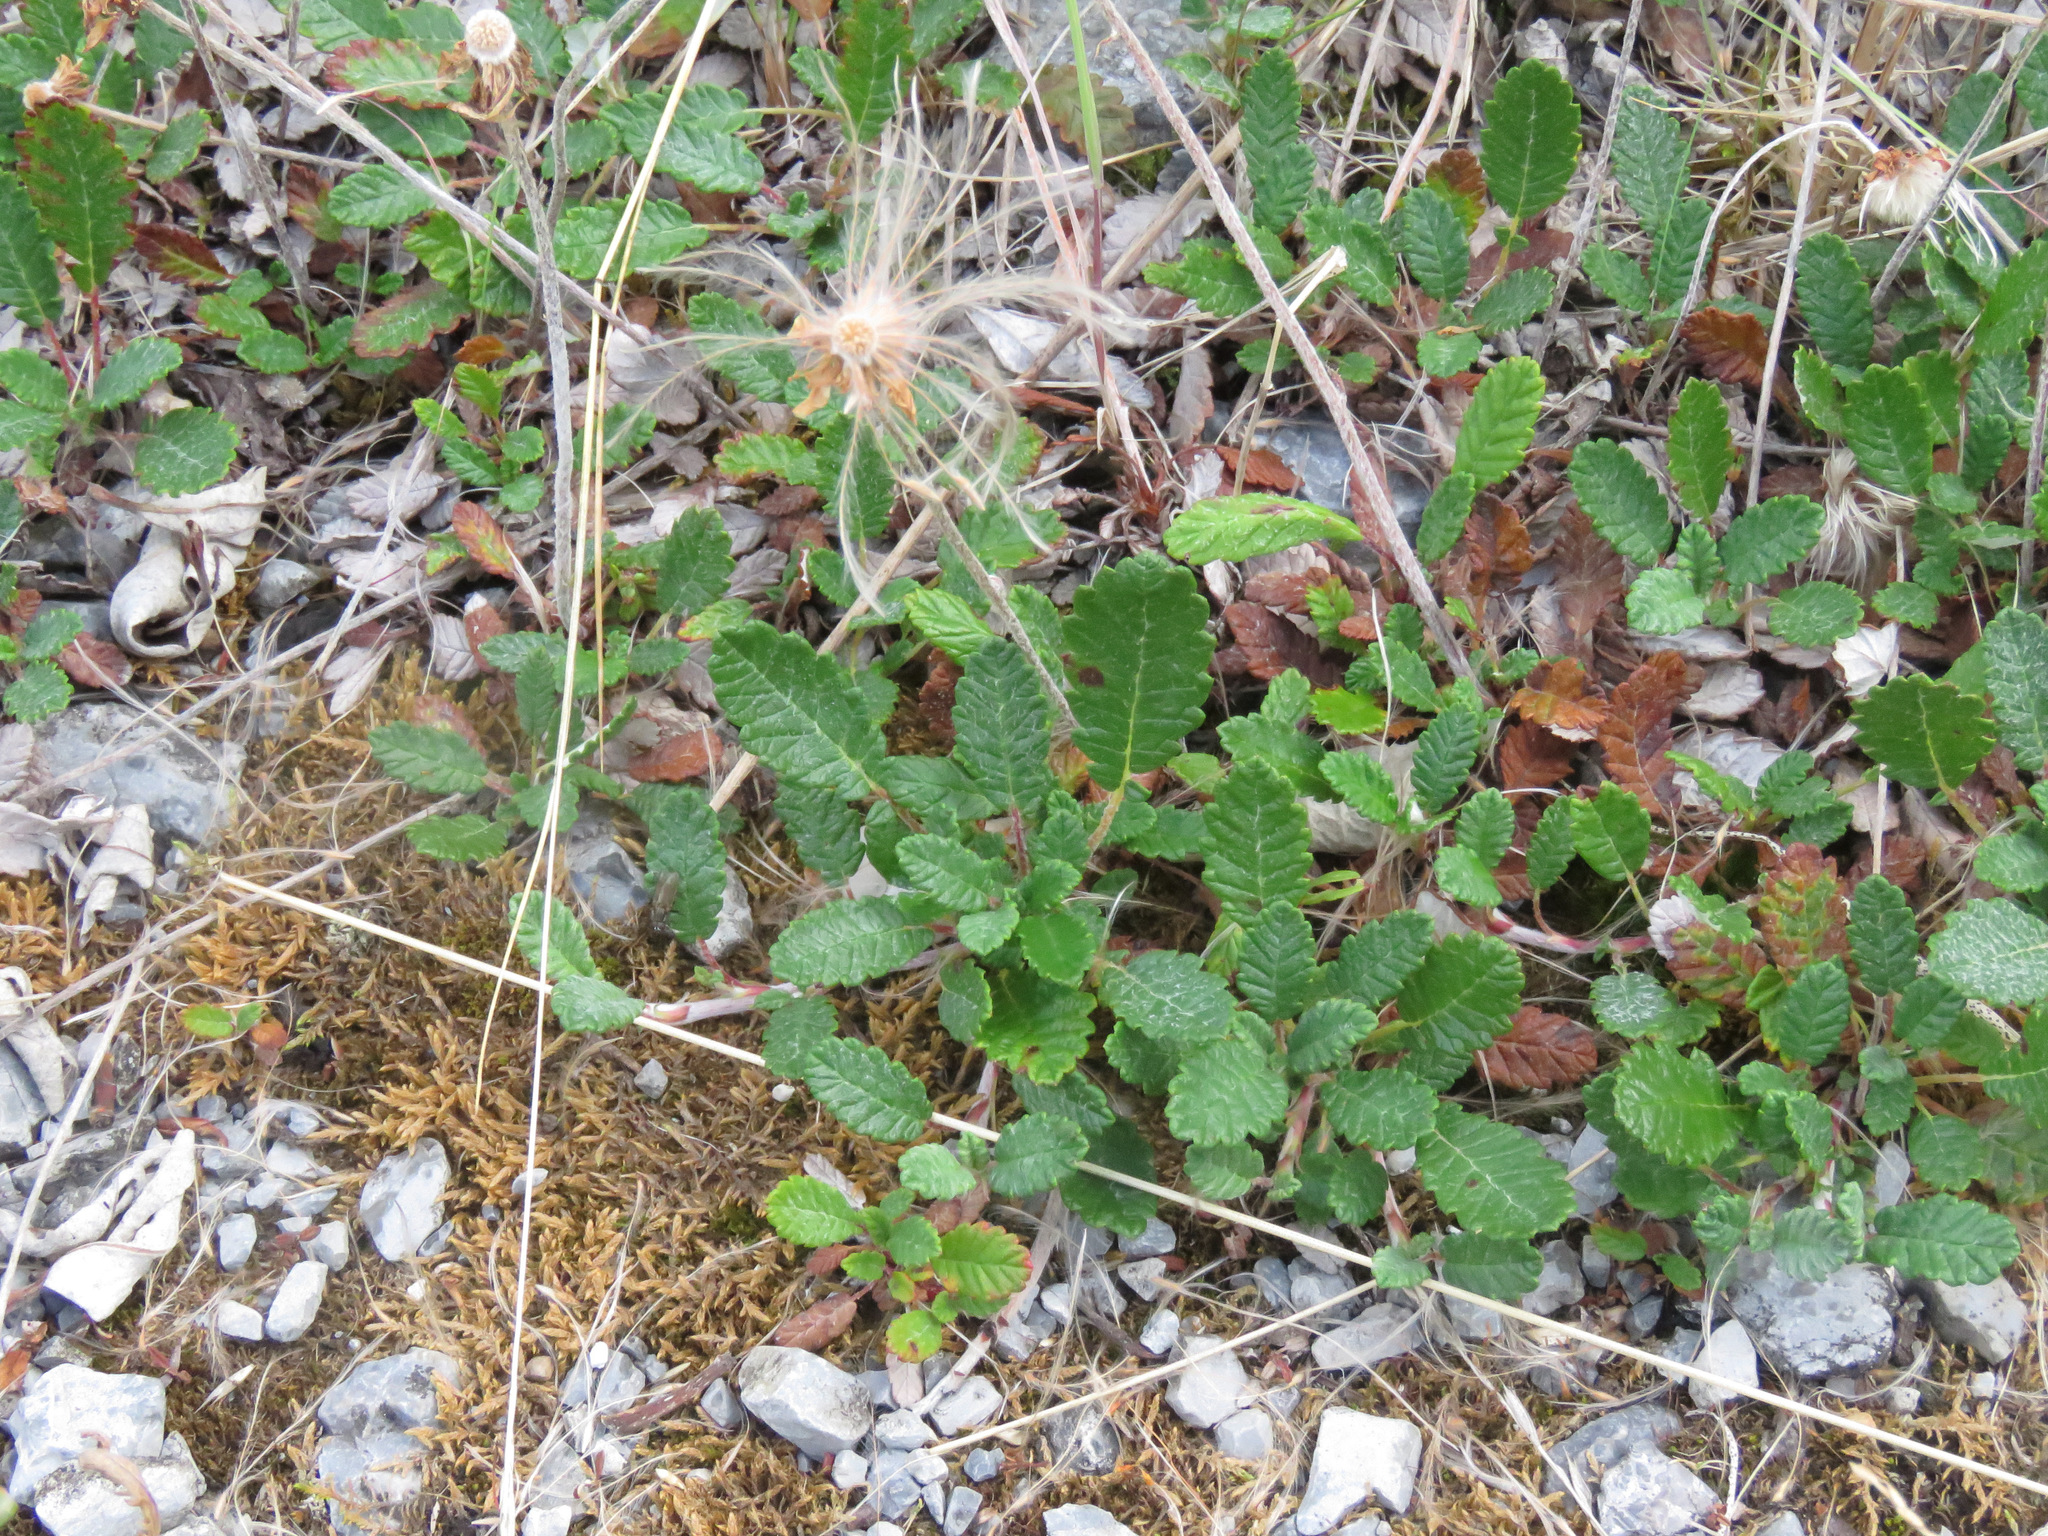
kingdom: Plantae
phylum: Tracheophyta
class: Magnoliopsida
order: Rosales
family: Rosaceae
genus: Dryas
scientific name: Dryas drummondii
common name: Drummond's dryad
